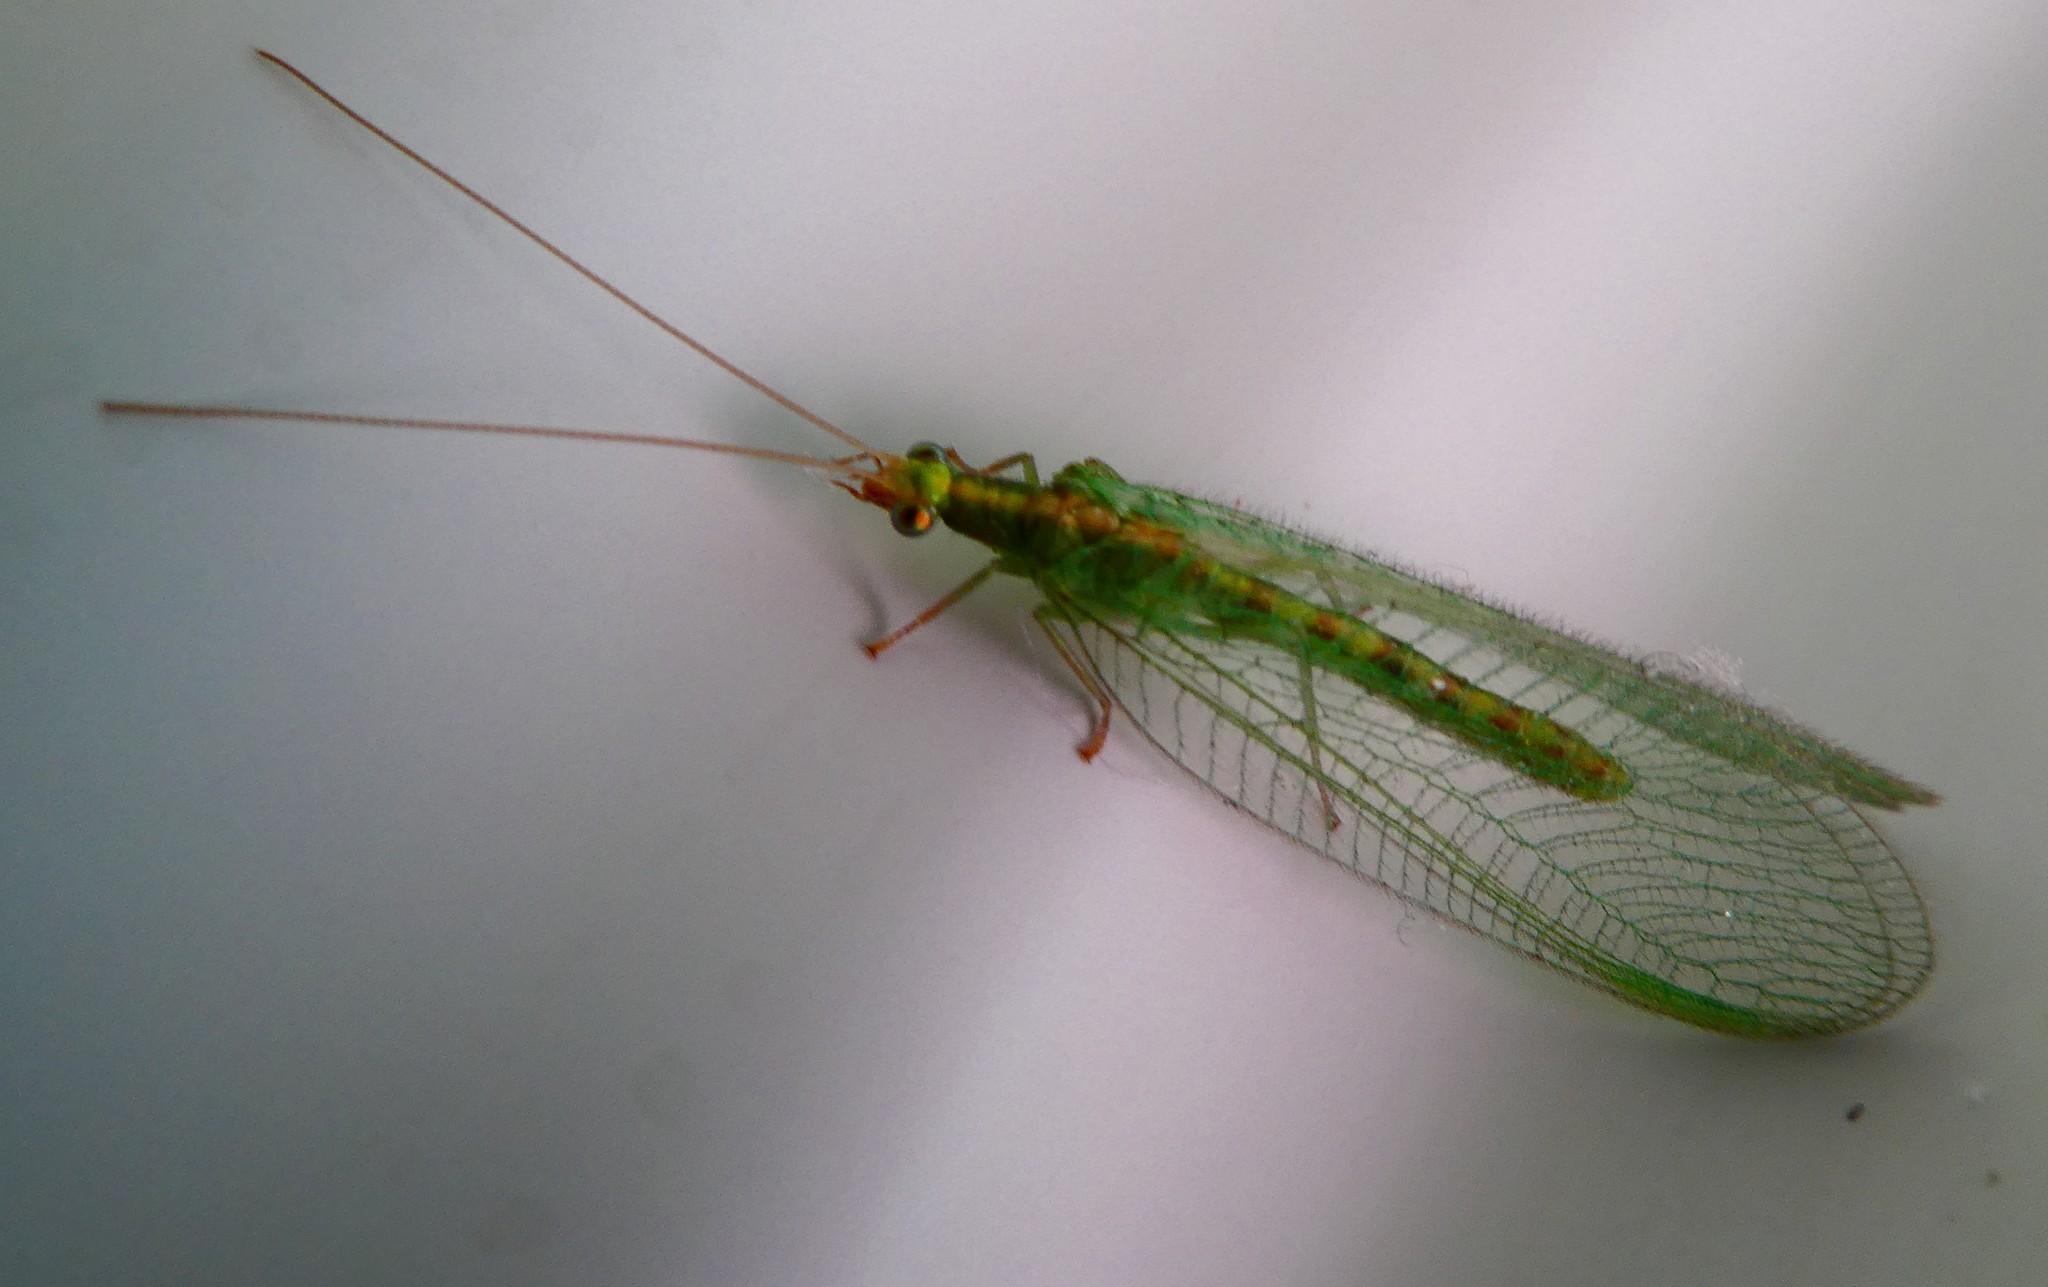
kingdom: Animalia
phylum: Arthropoda
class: Insecta
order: Neuroptera
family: Chrysopidae
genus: Chrysoperla
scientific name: Chrysoperla
